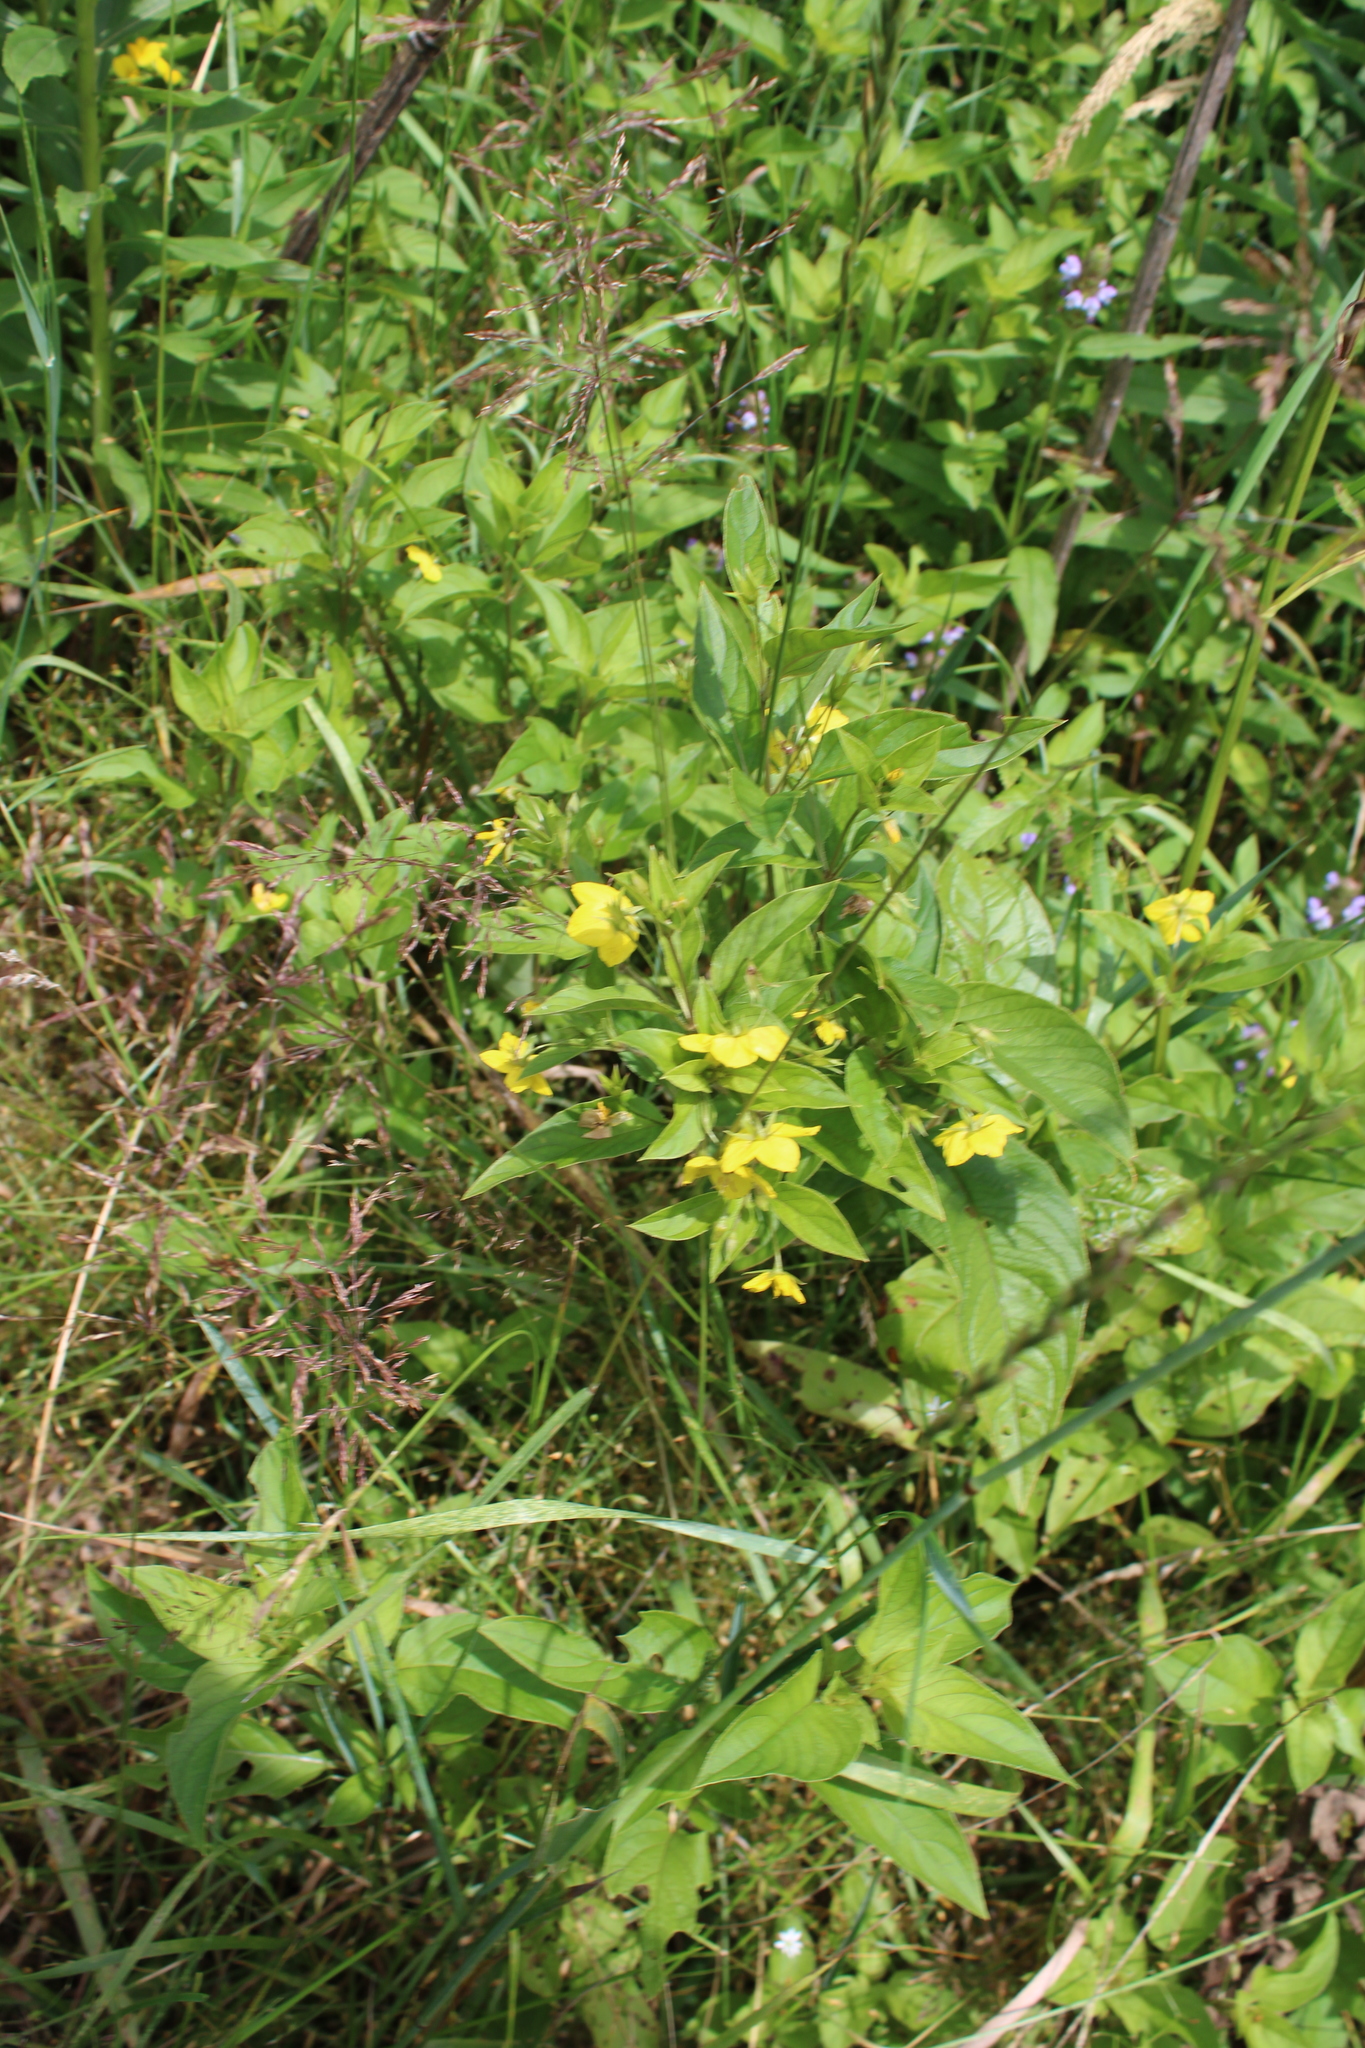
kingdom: Plantae
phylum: Tracheophyta
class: Magnoliopsida
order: Ericales
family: Primulaceae
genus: Lysimachia
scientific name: Lysimachia ciliata
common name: Fringed loosestrife
